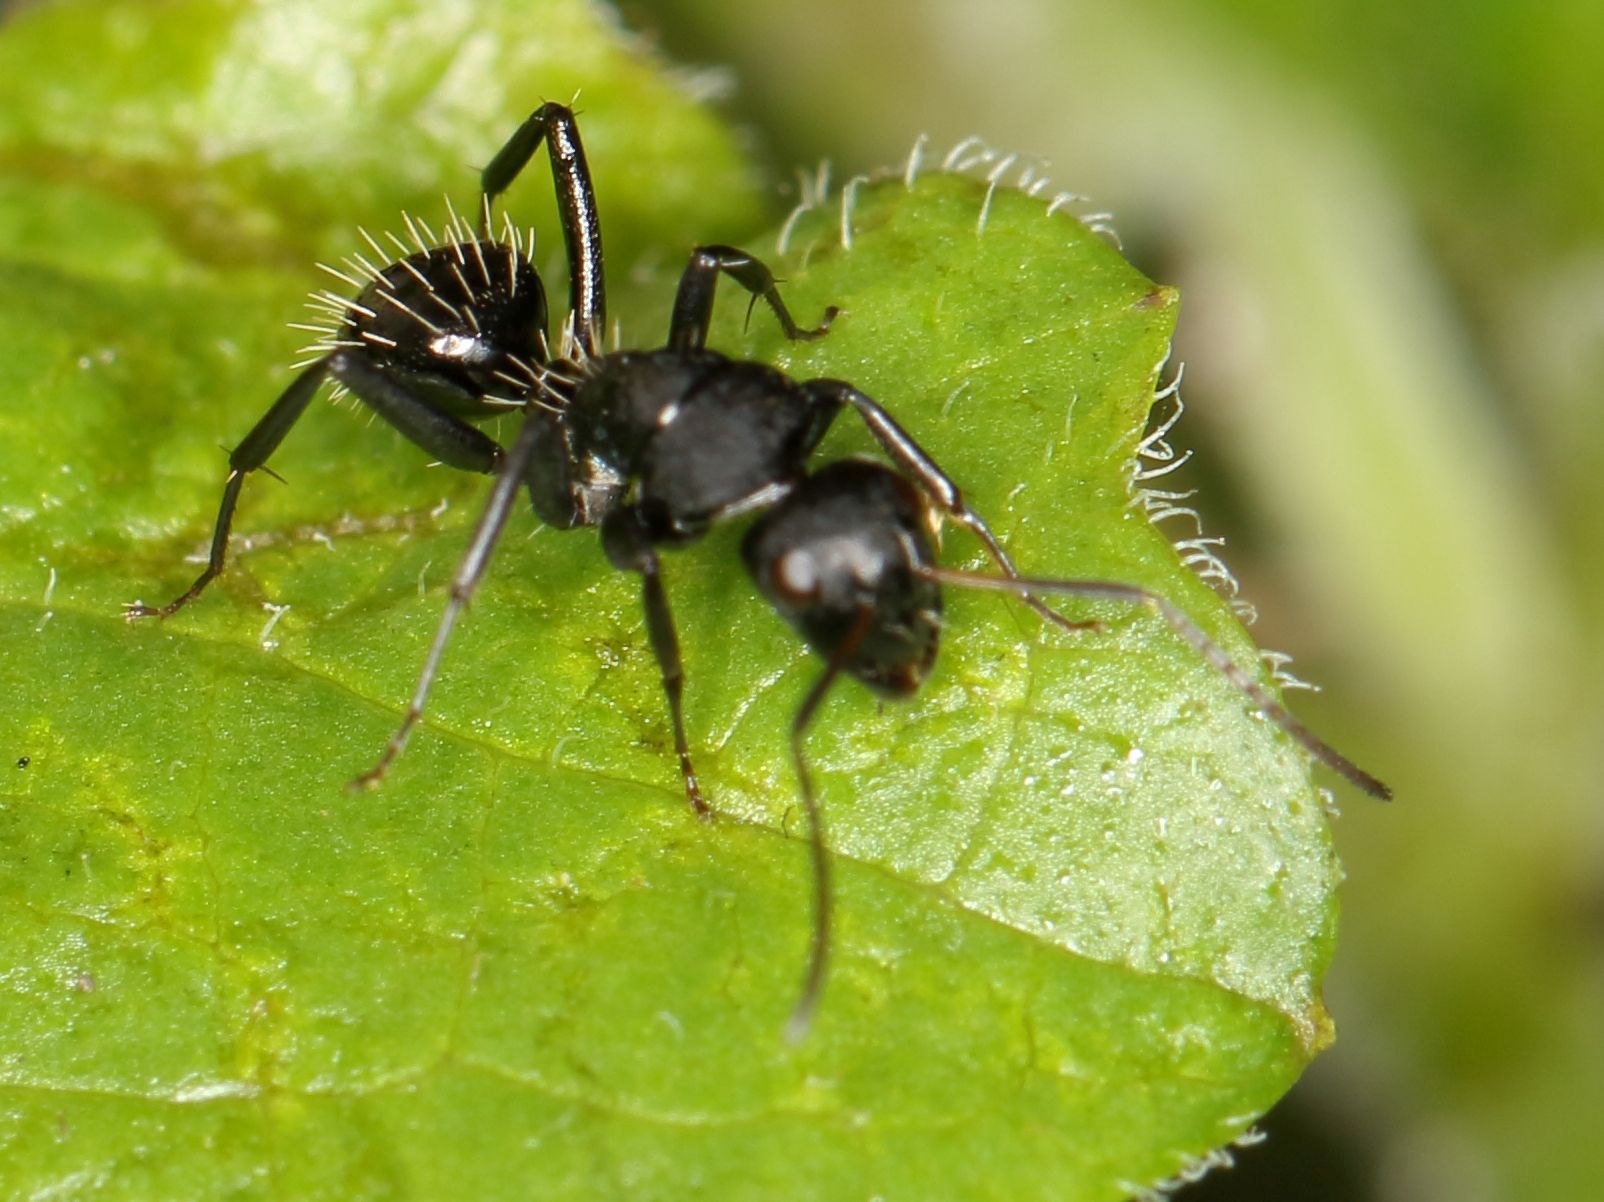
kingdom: Animalia
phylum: Arthropoda
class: Insecta
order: Hymenoptera
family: Formicidae
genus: Camponotus
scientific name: Camponotus niveosetosus
